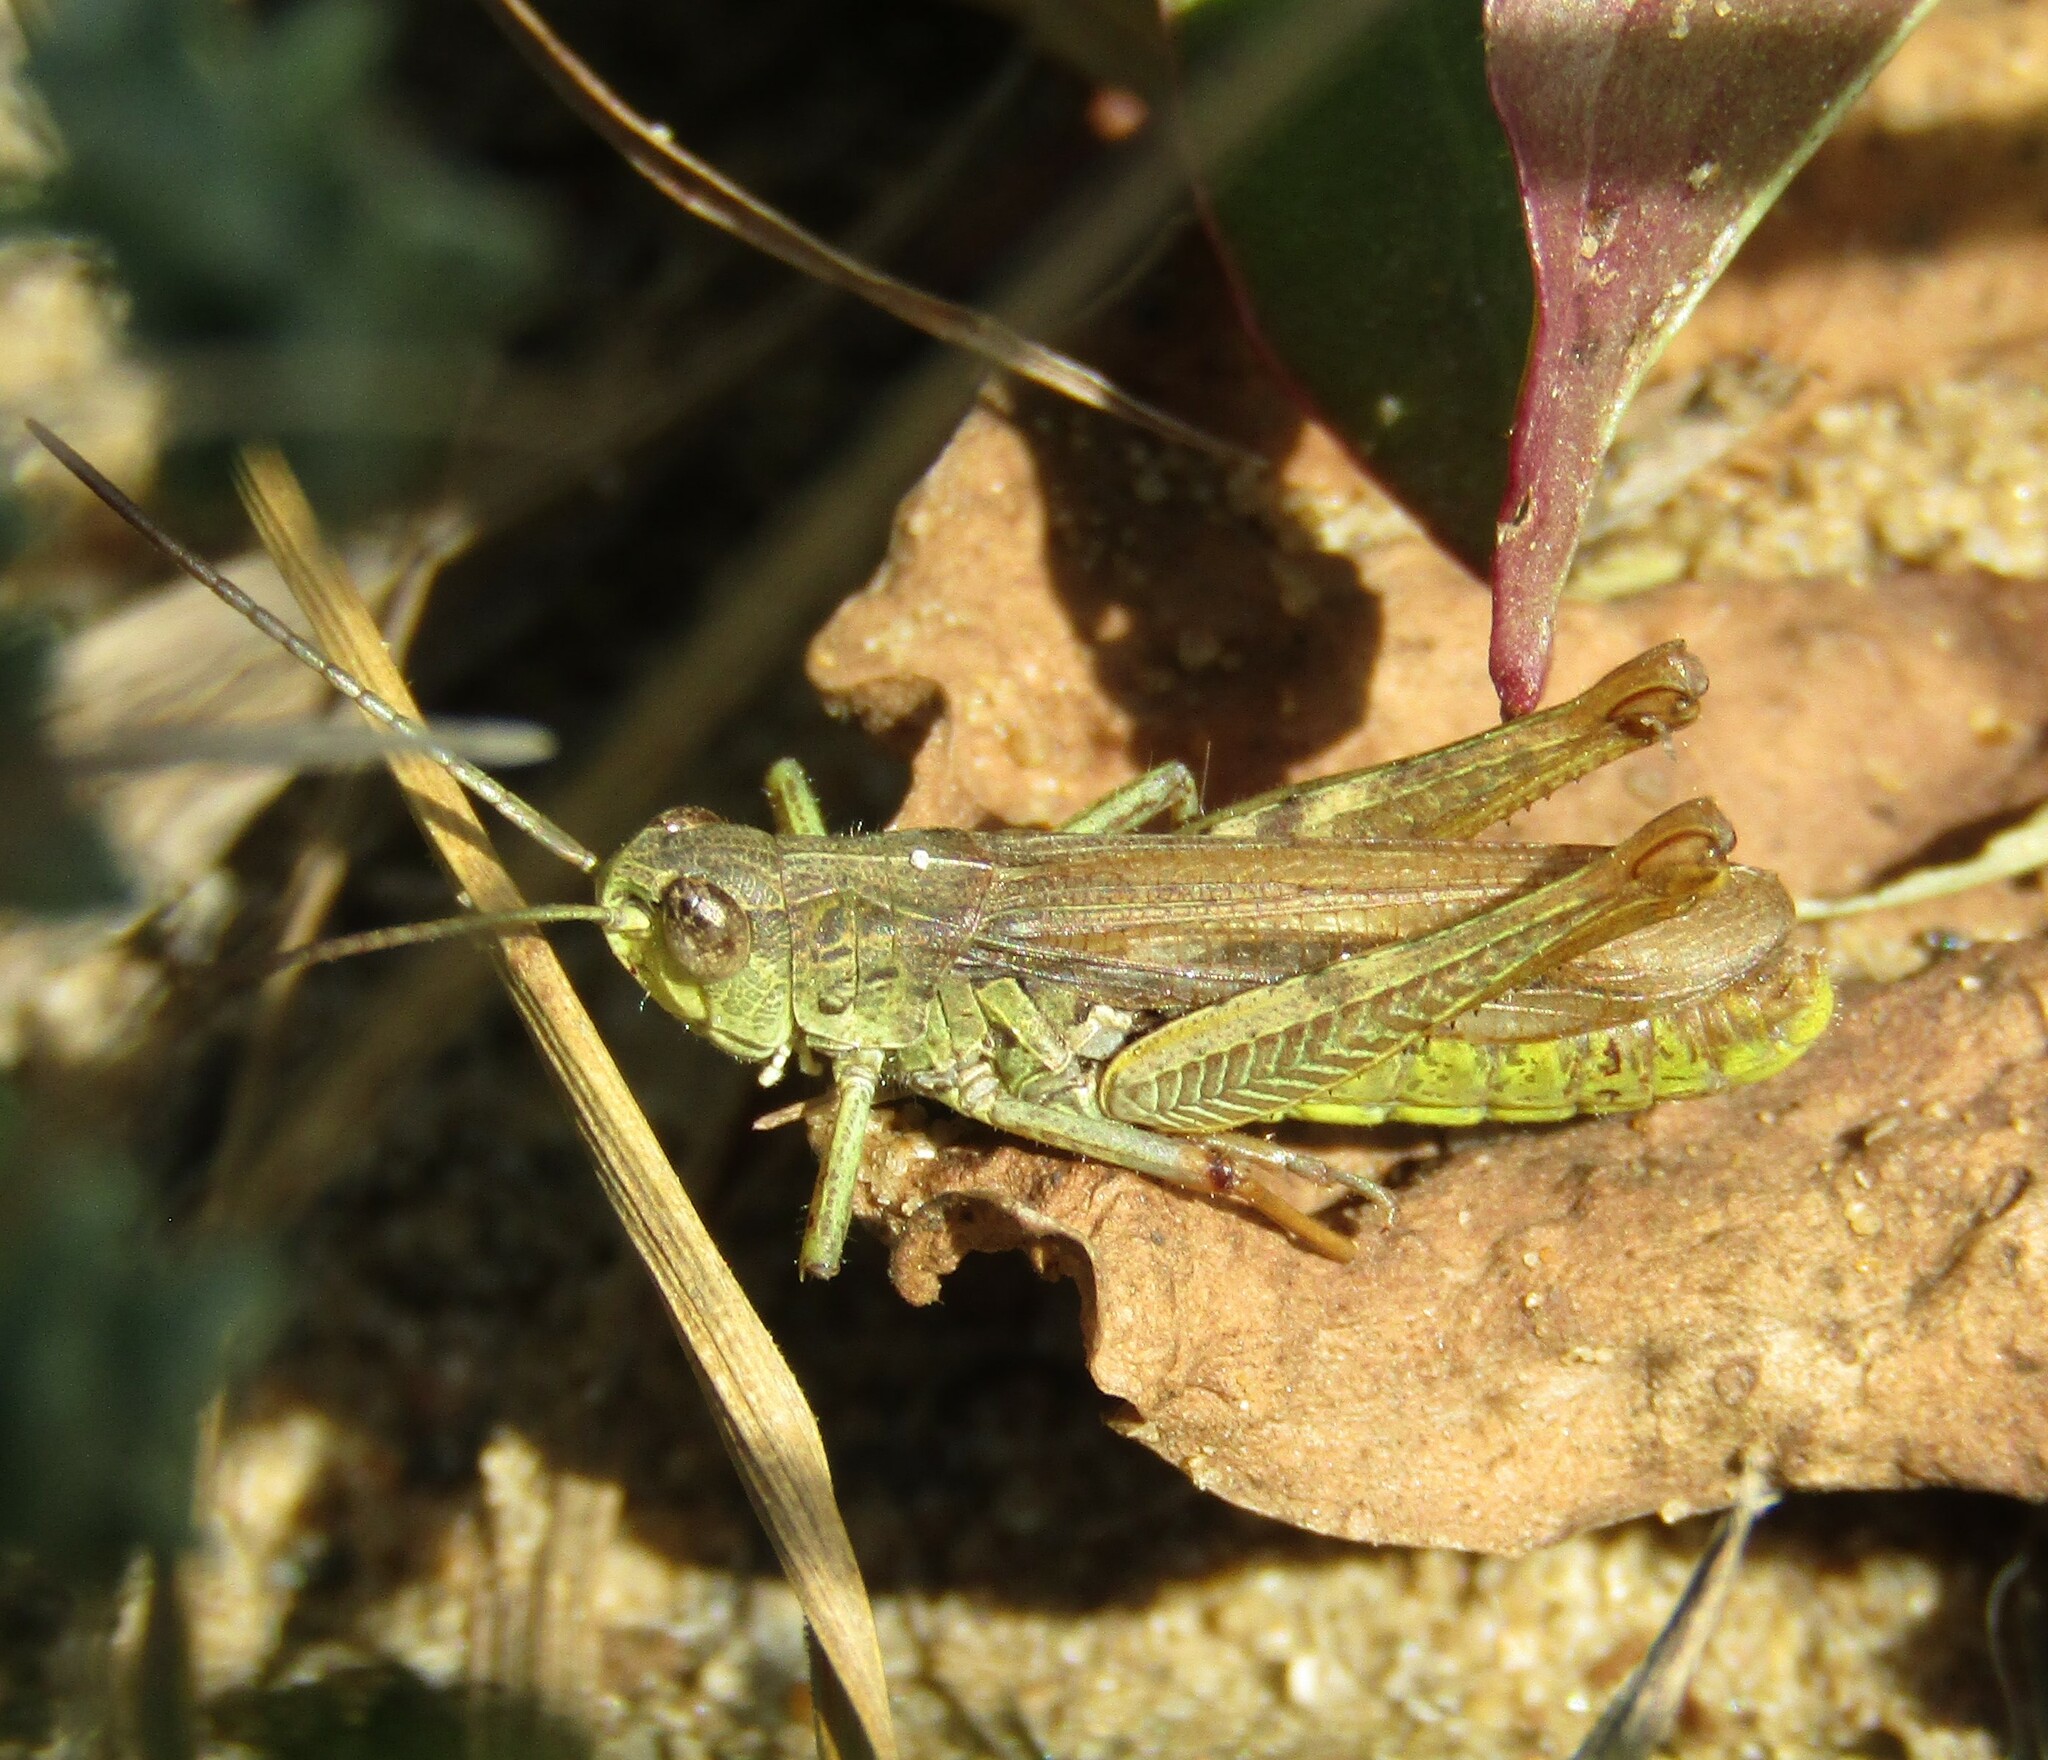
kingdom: Animalia
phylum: Arthropoda
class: Insecta
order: Orthoptera
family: Acrididae
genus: Chorthippus
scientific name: Chorthippus apricarius
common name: Upland field grasshopper
